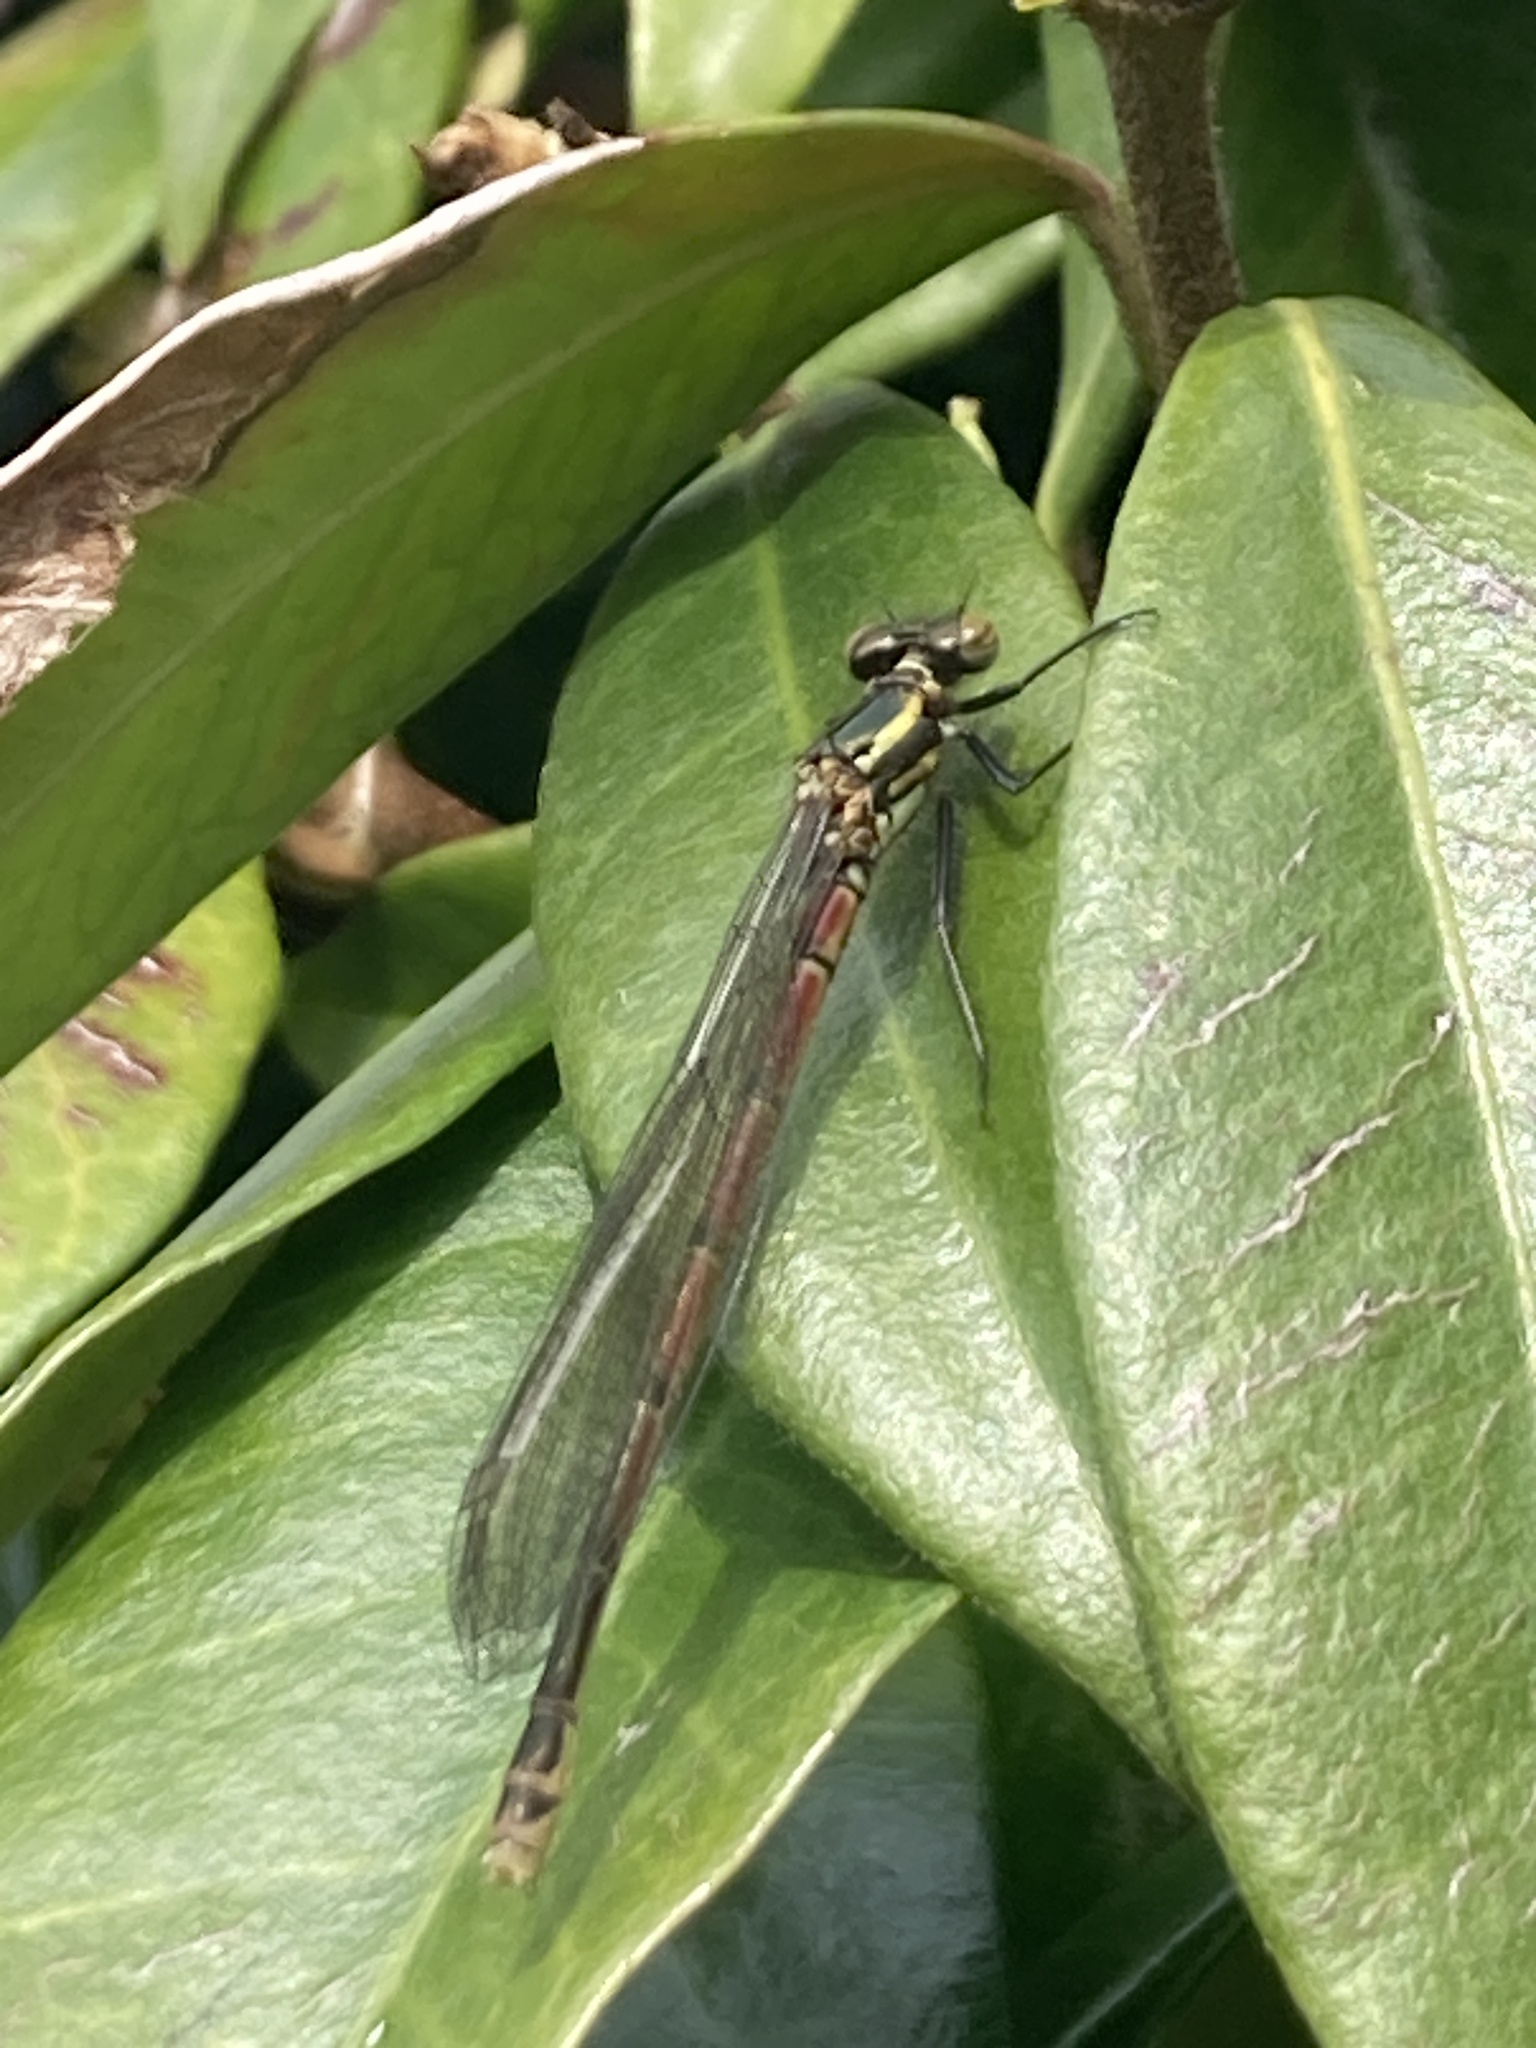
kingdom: Animalia
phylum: Arthropoda
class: Insecta
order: Odonata
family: Coenagrionidae
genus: Pyrrhosoma
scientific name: Pyrrhosoma nymphula
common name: Large red damsel
